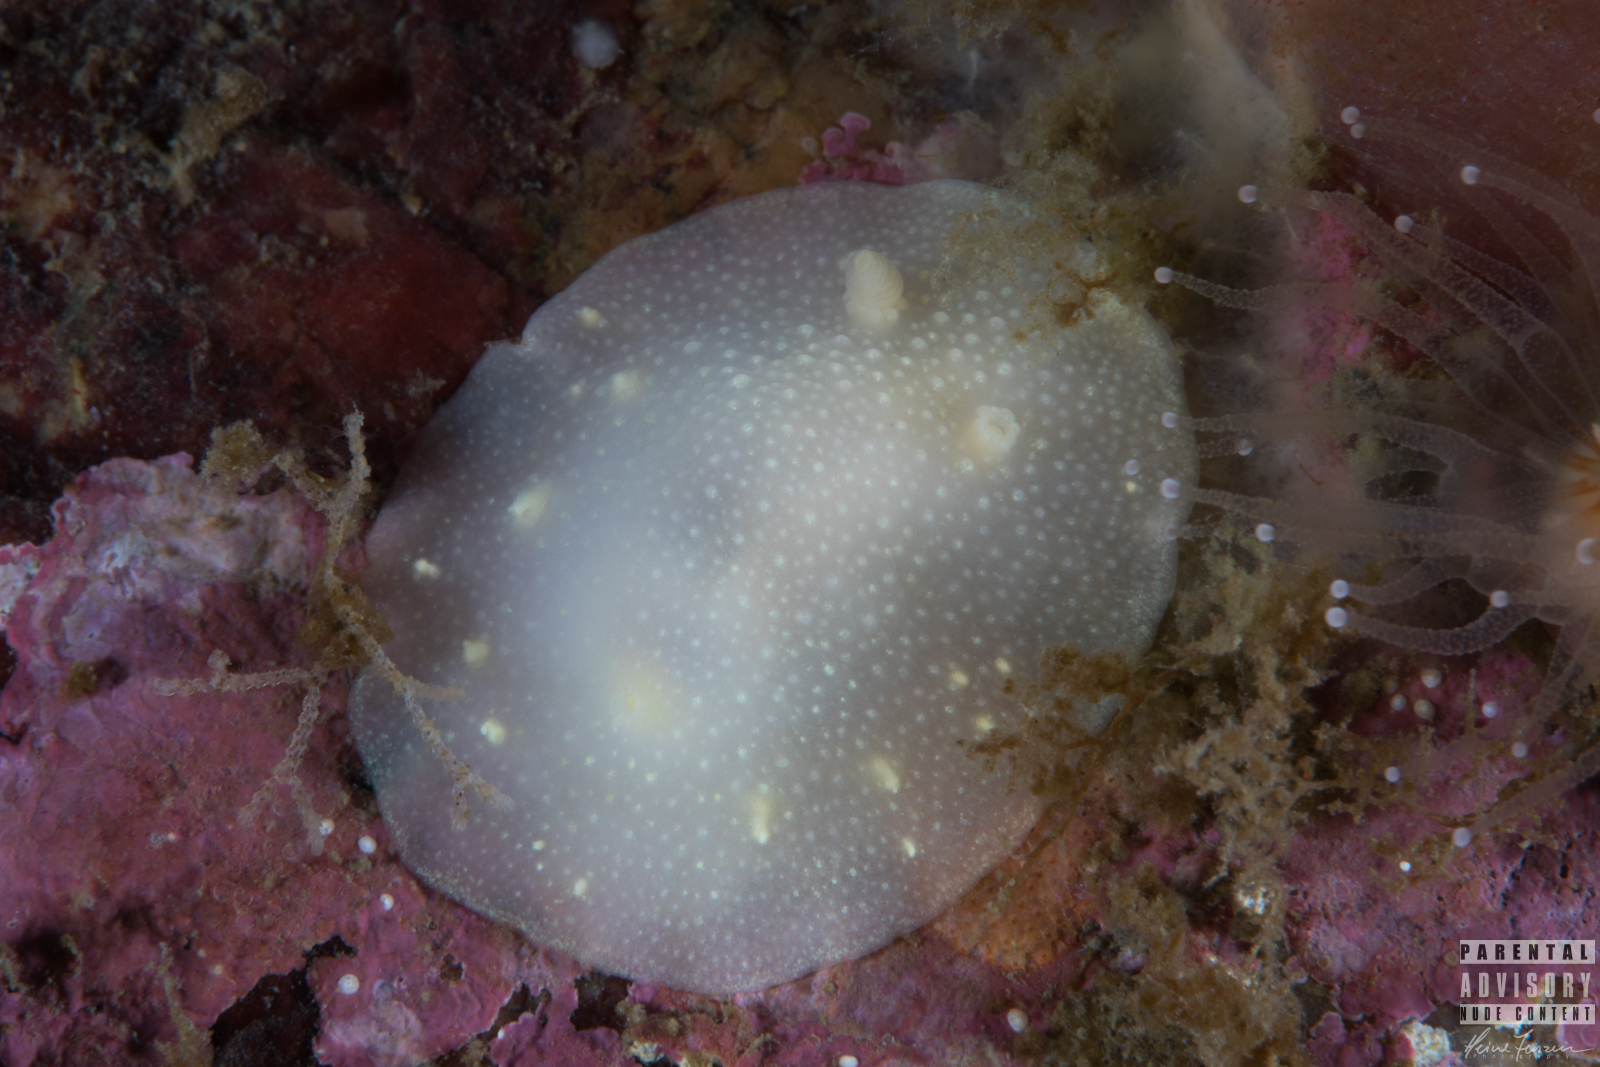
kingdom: Animalia
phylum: Mollusca
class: Gastropoda
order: Nudibranchia
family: Cadlinidae
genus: Cadlina
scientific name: Cadlina laevis
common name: White atlantic cadlina
